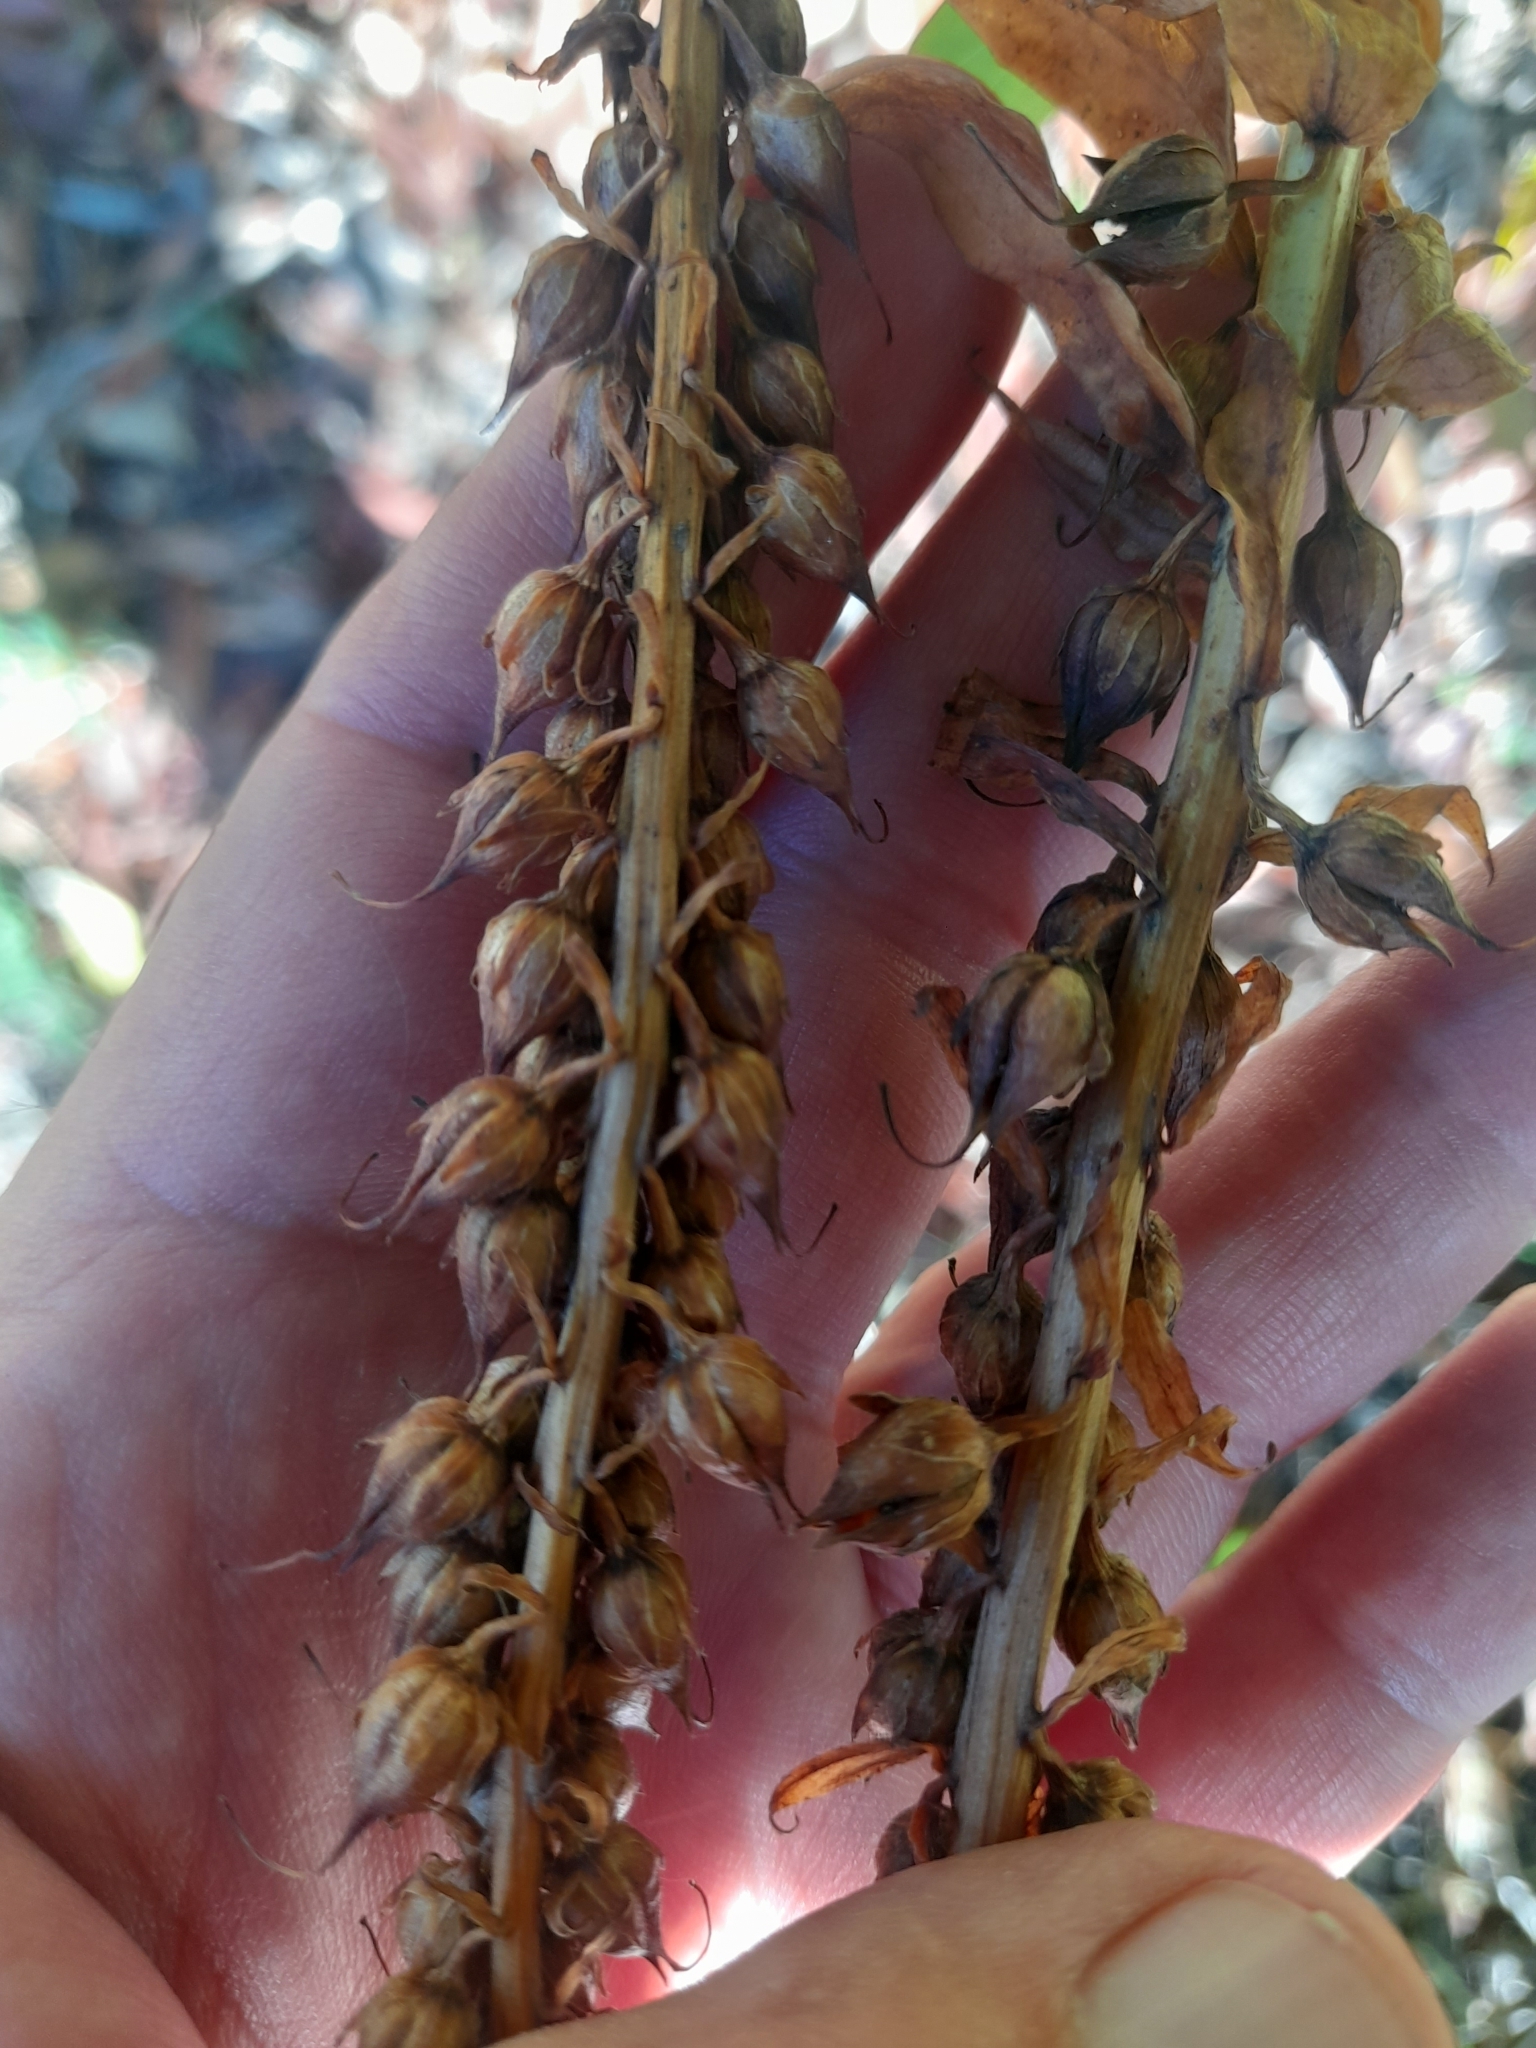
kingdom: Plantae
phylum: Tracheophyta
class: Magnoliopsida
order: Lamiales
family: Plantaginaceae
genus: Digitalis
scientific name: Digitalis lutea
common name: Straw foxglove
